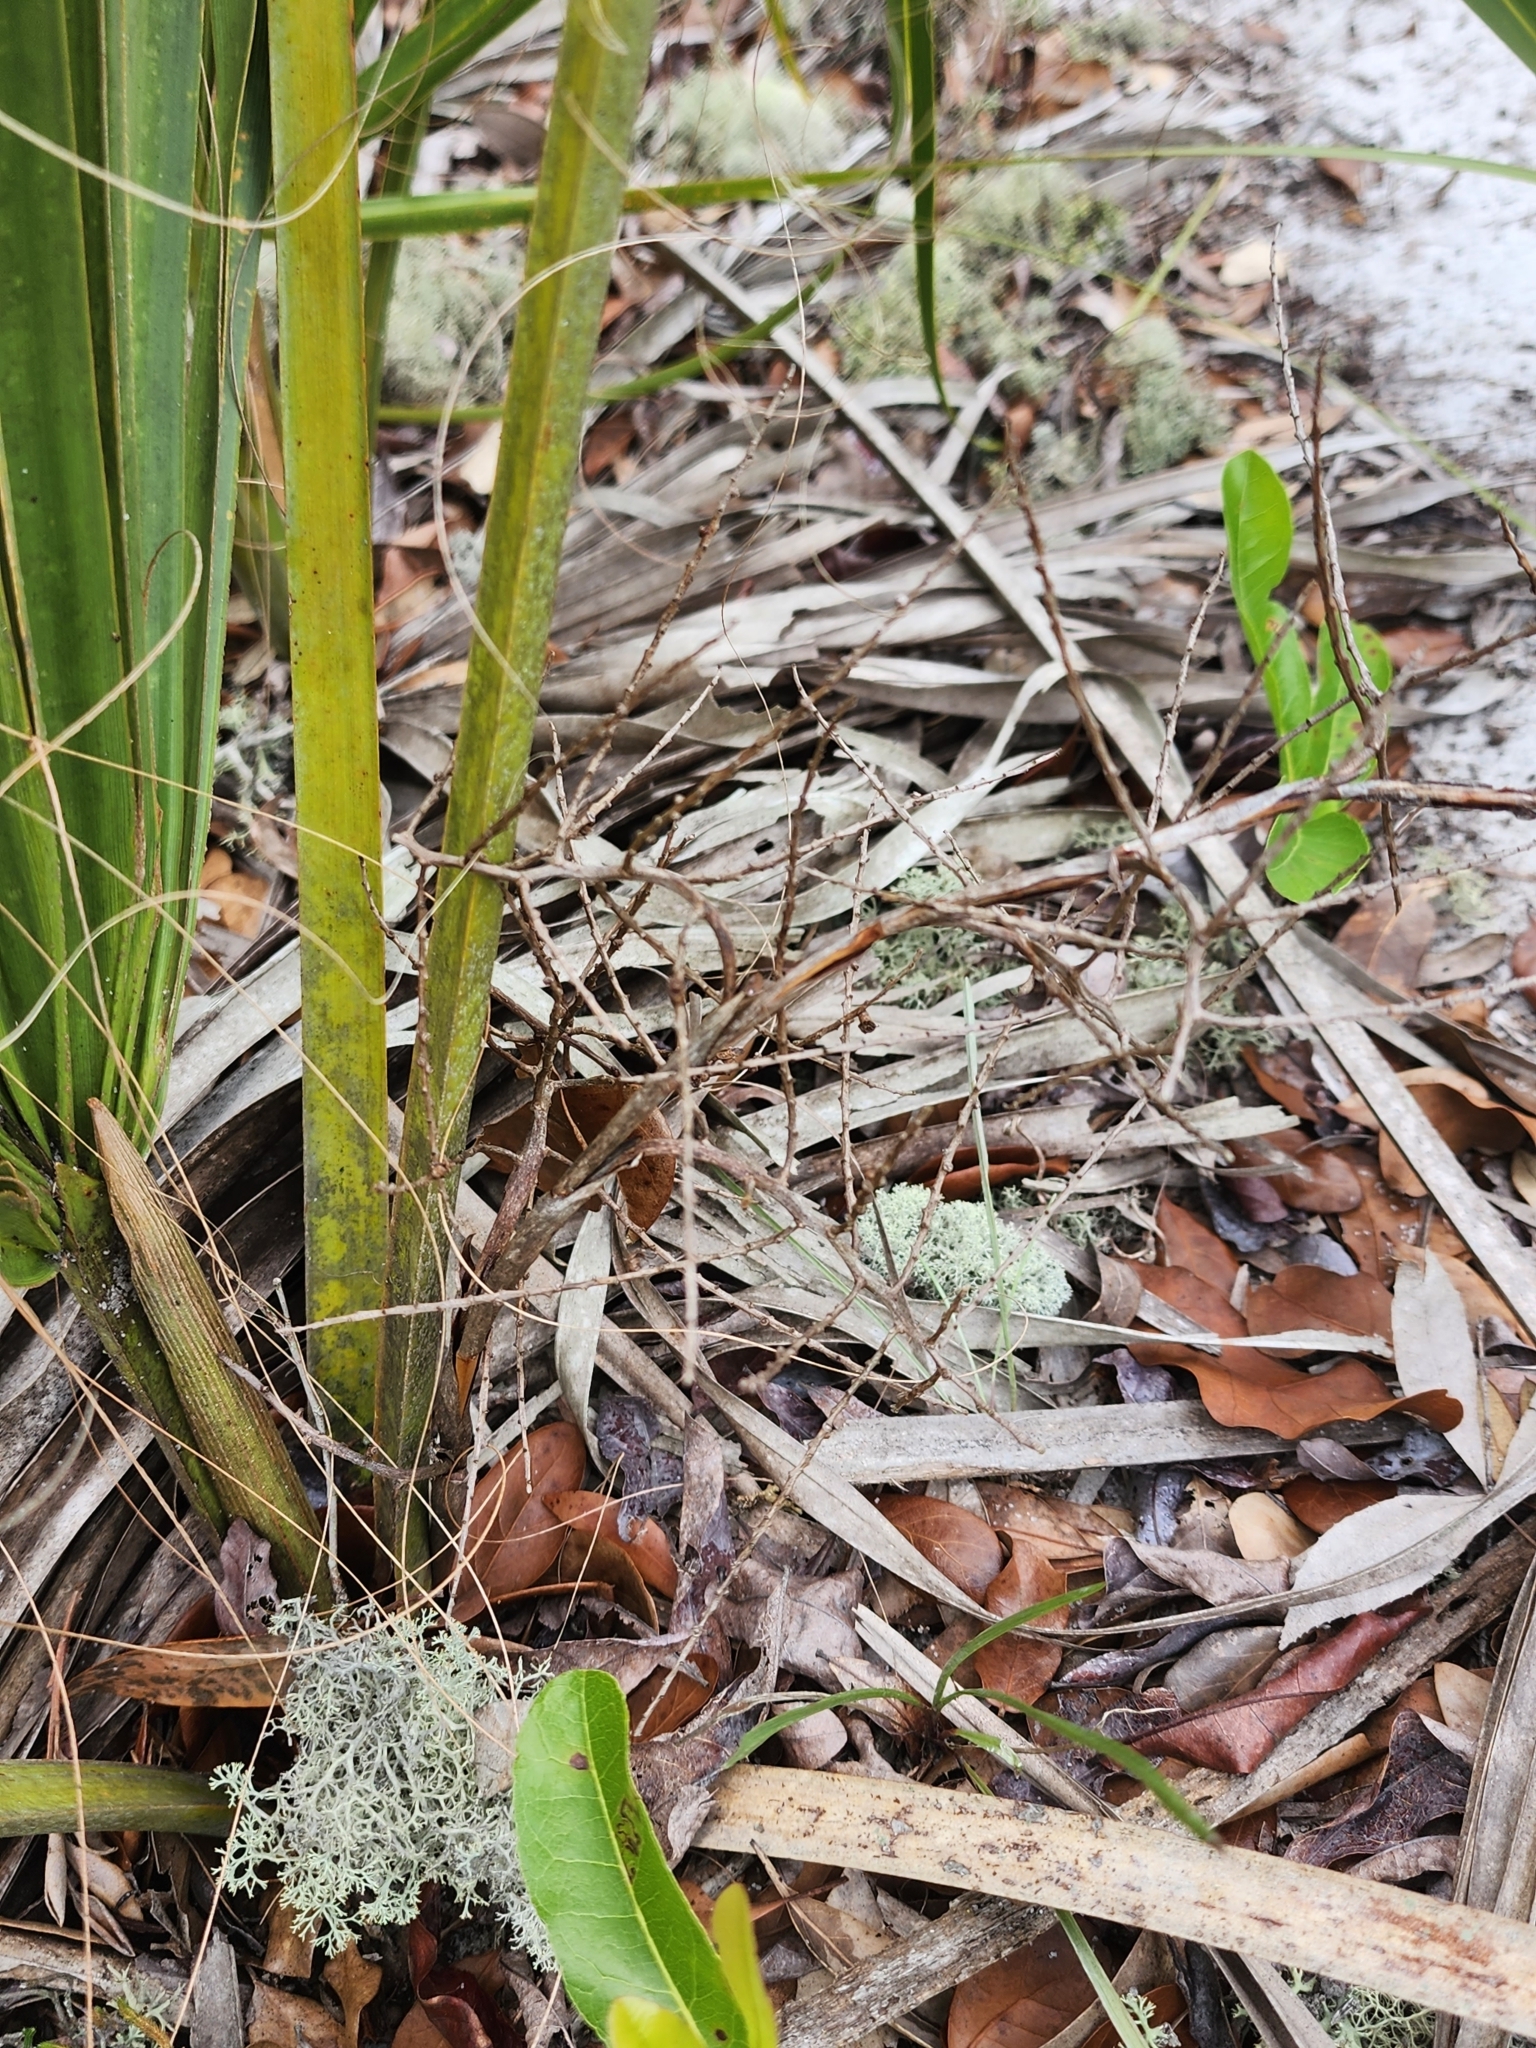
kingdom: Plantae
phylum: Tracheophyta
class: Liliopsida
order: Arecales
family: Arecaceae
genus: Sabal
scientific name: Sabal etonia
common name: Dwarf palmetto
